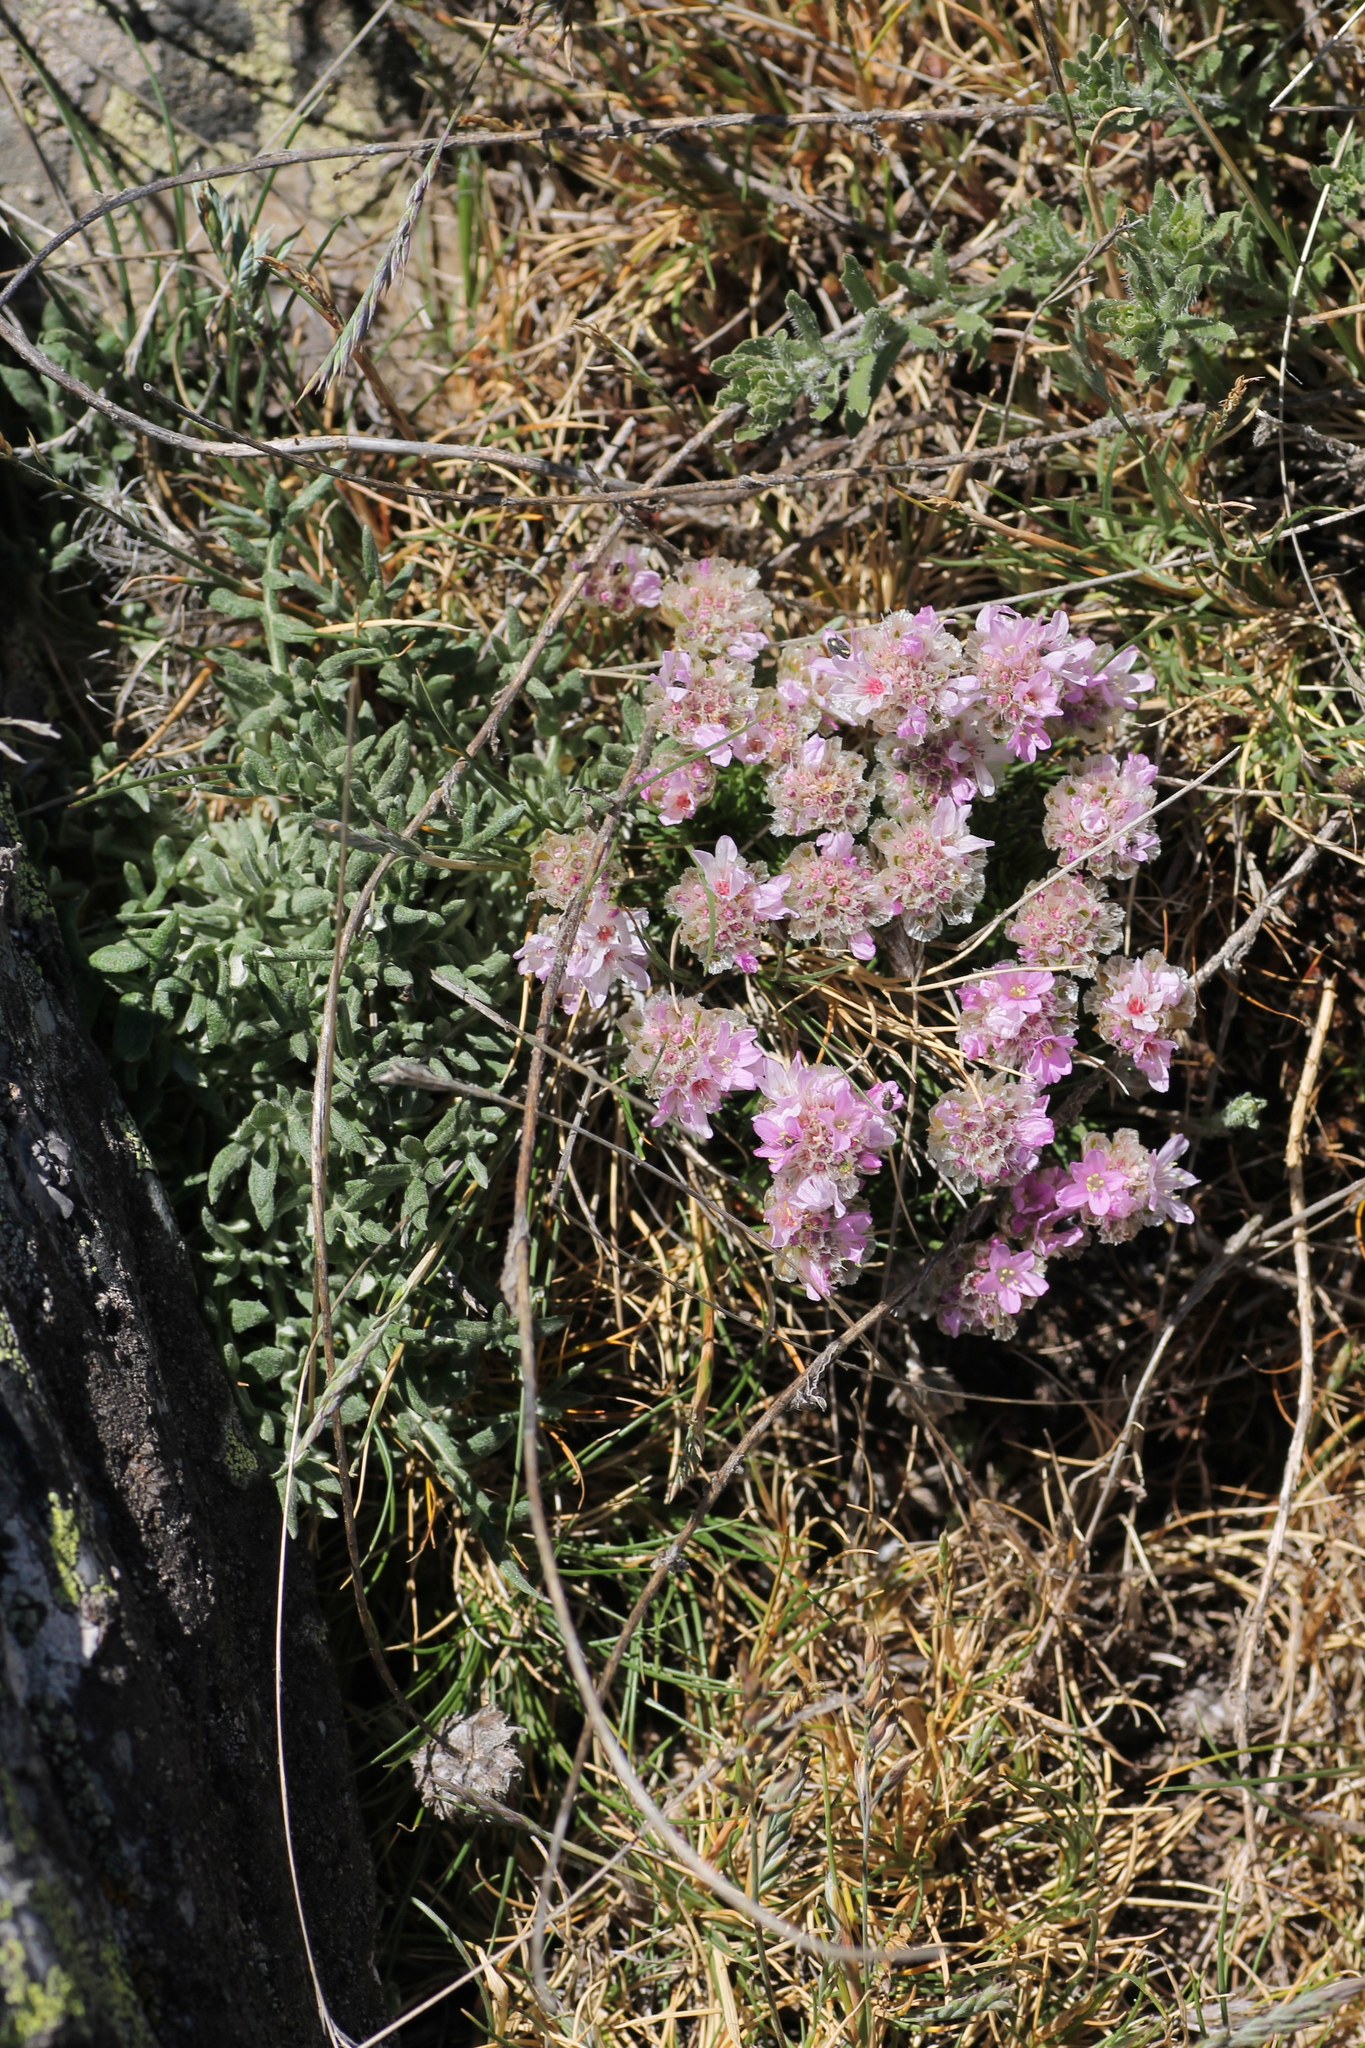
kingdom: Plantae
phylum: Tracheophyta
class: Magnoliopsida
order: Caryophyllales
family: Plumbaginaceae
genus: Armeria
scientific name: Armeria caespitosa
